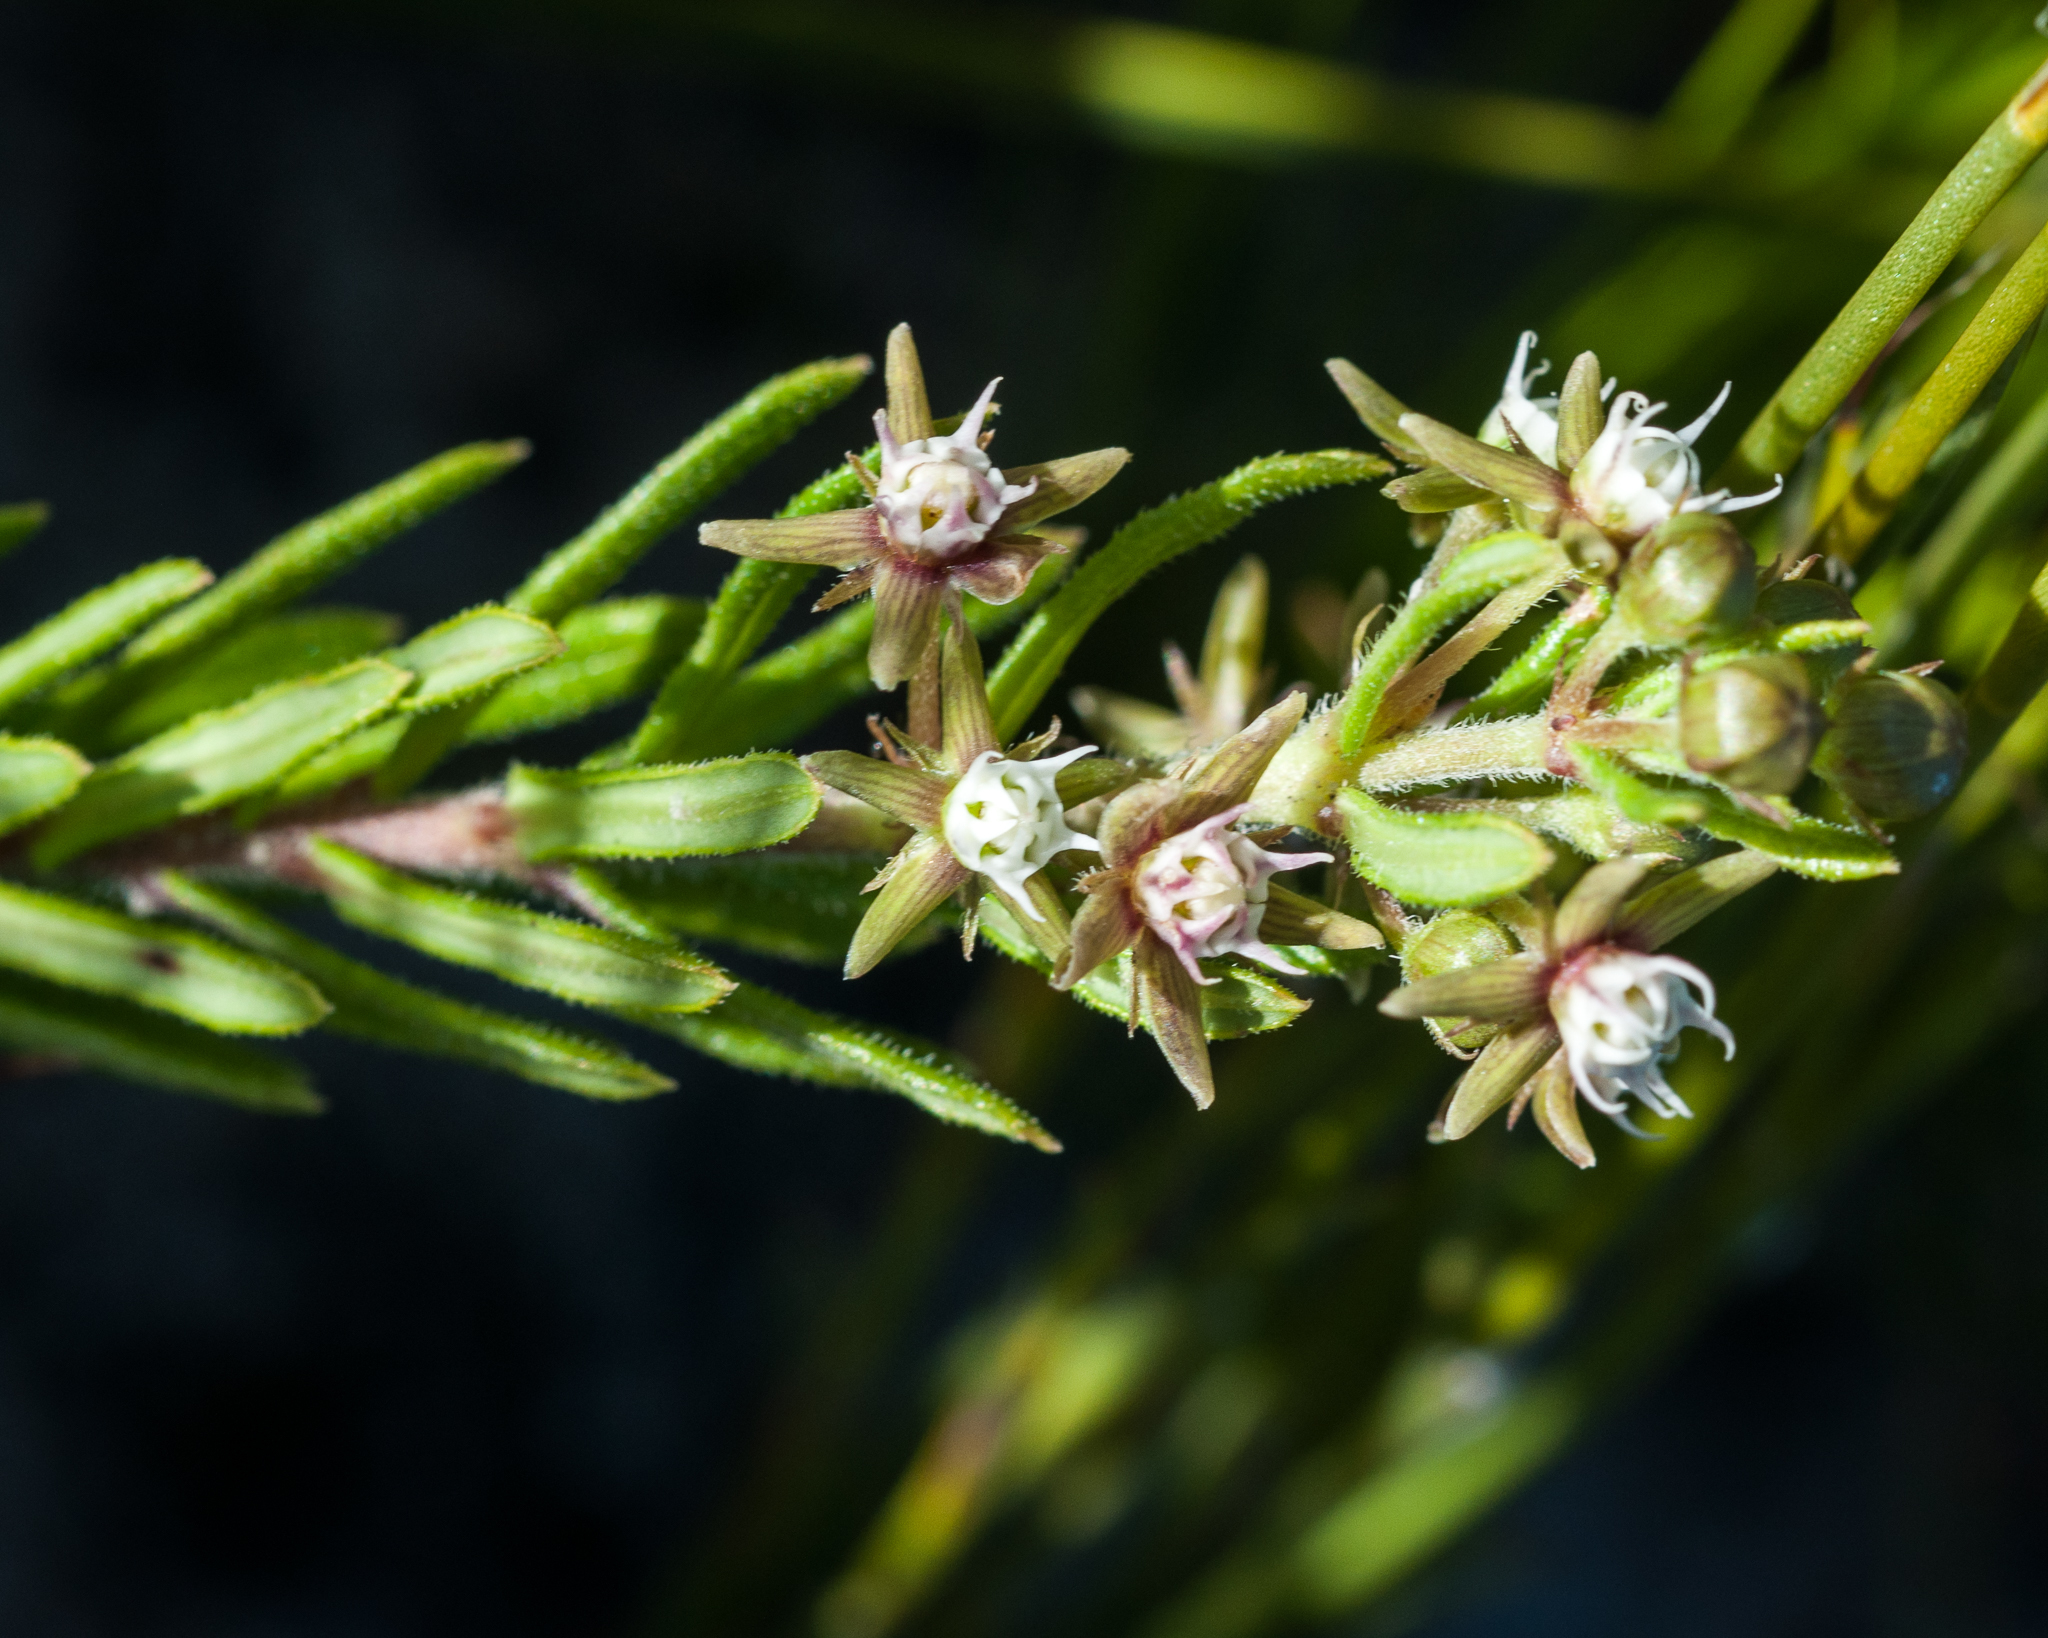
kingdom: Plantae
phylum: Tracheophyta
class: Magnoliopsida
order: Gentianales
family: Apocynaceae
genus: Aspidoglossum
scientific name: Aspidoglossum heterophyllum
